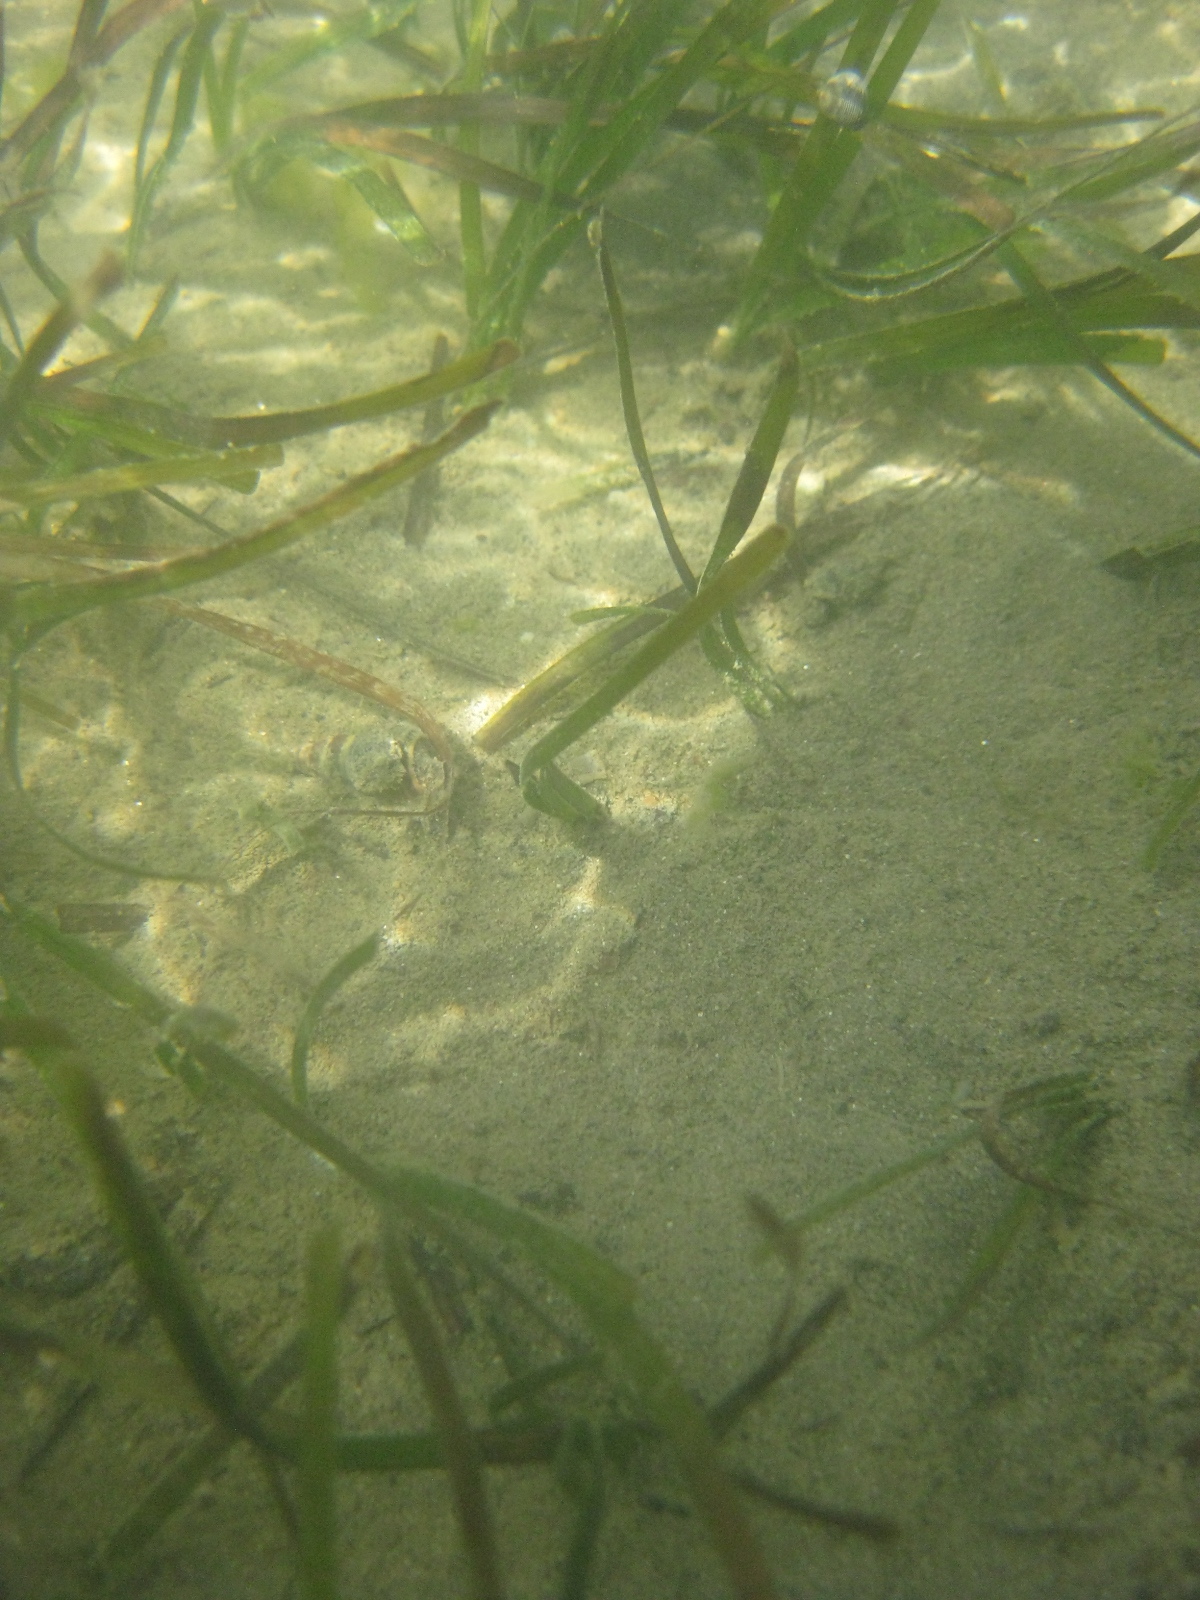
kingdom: Plantae
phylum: Tracheophyta
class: Liliopsida
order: Alismatales
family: Zosteraceae
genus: Zostera
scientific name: Zostera novazelandica
